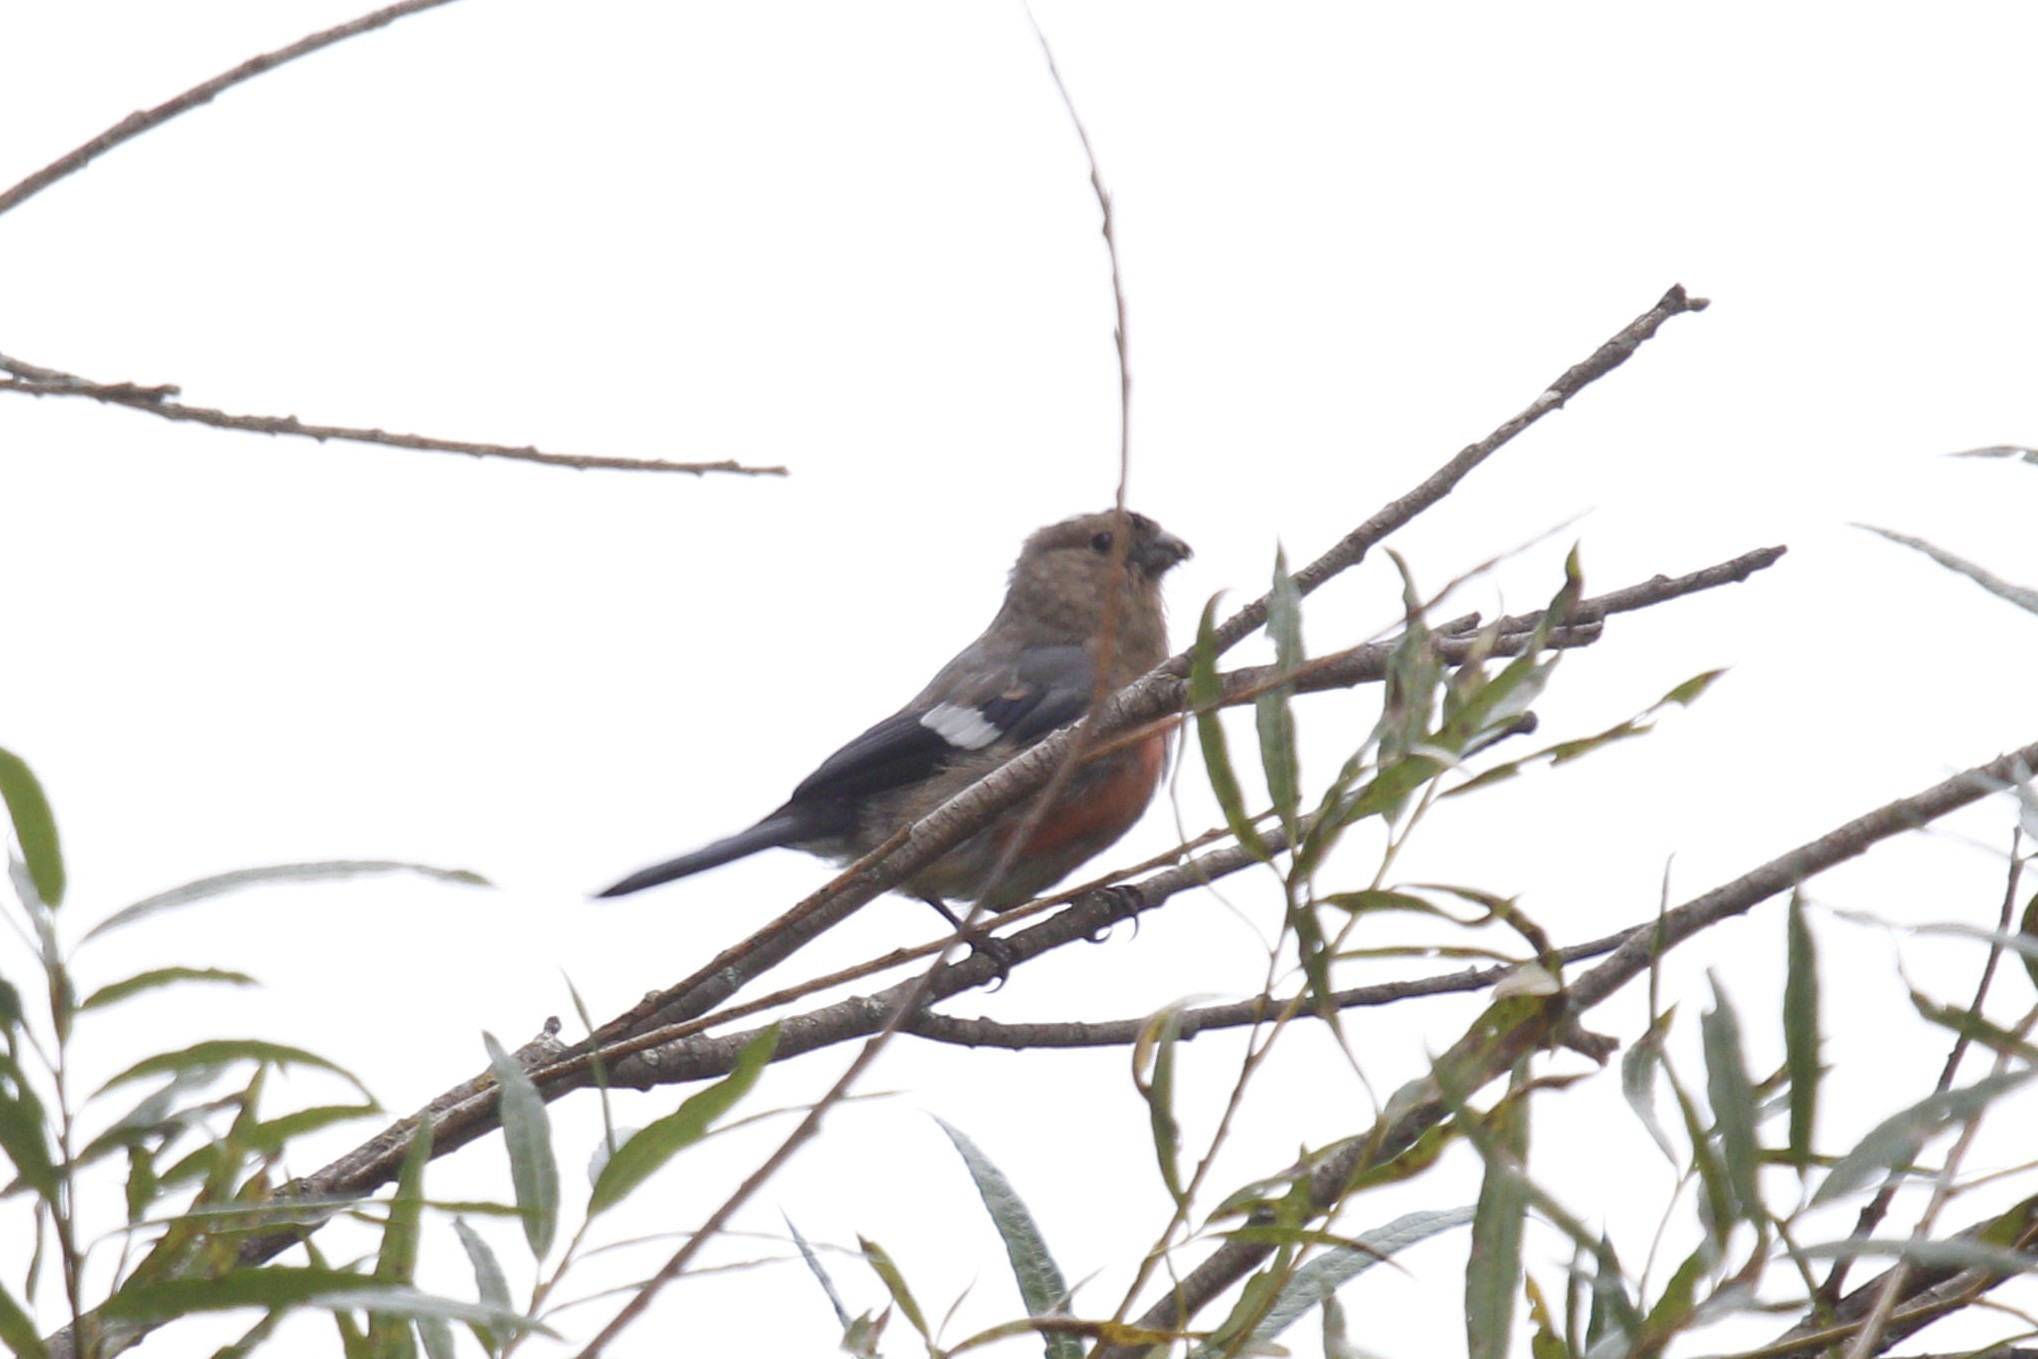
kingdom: Animalia
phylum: Chordata
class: Aves
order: Passeriformes
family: Fringillidae
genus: Pyrrhula
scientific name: Pyrrhula pyrrhula
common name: Eurasian bullfinch
